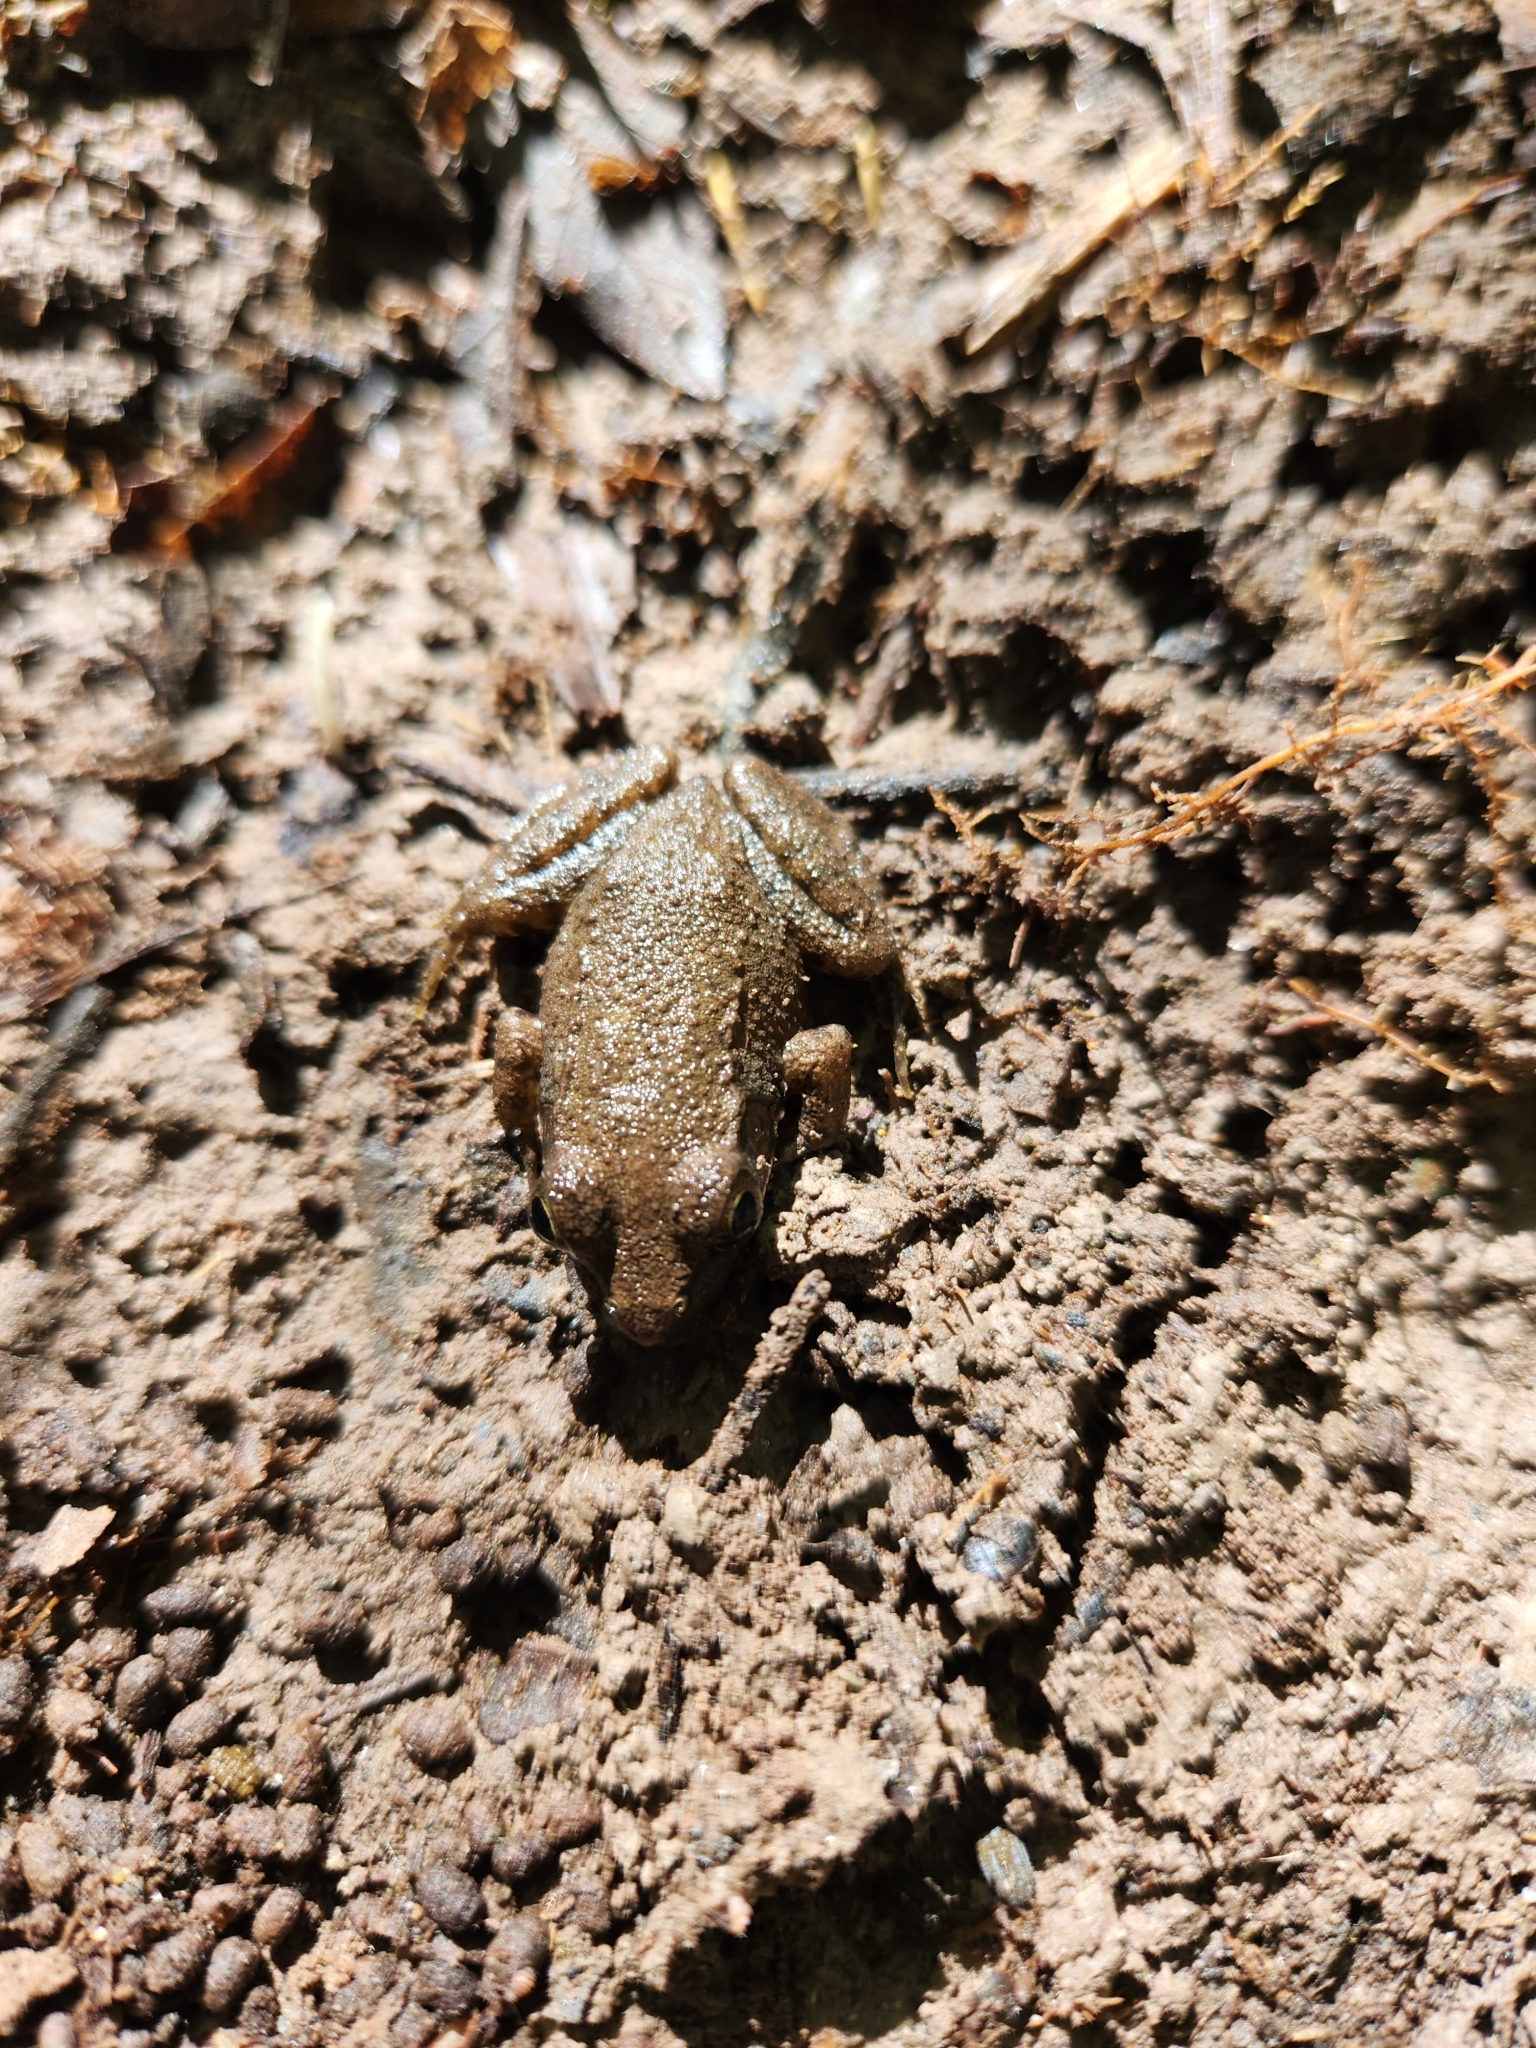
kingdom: Animalia
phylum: Chordata
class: Amphibia
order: Anura
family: Ranidae
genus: Lithobates
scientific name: Lithobates clamitans
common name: Green frog
